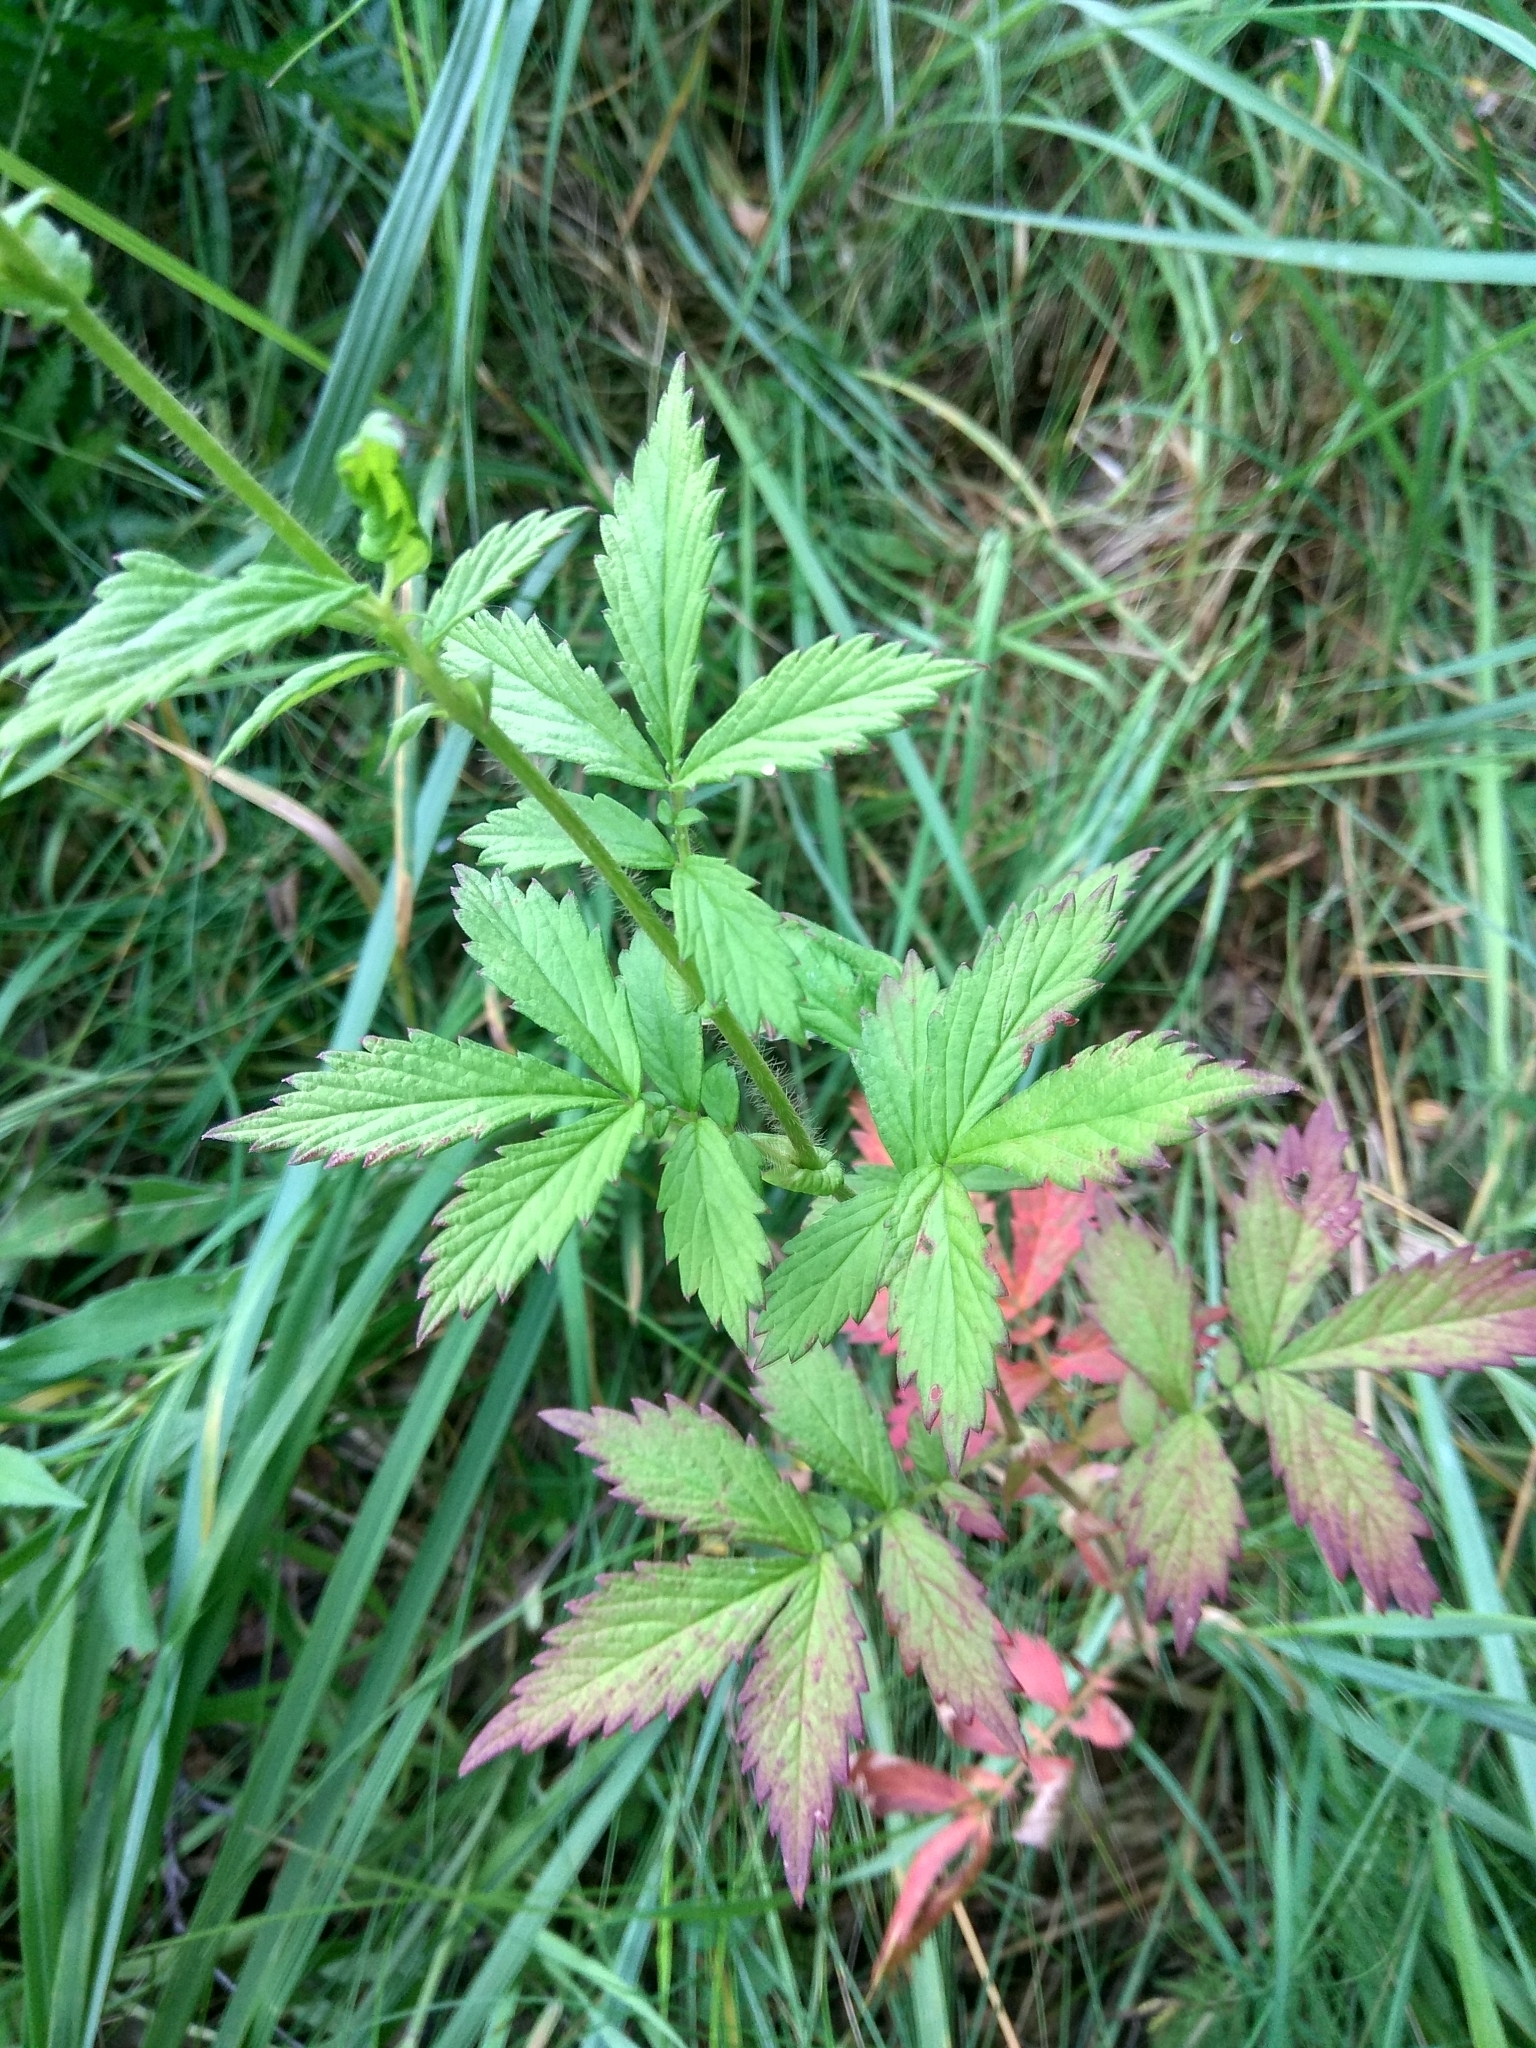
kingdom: Plantae
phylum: Tracheophyta
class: Magnoliopsida
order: Rosales
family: Rosaceae
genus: Agrimonia
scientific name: Agrimonia pilosa
